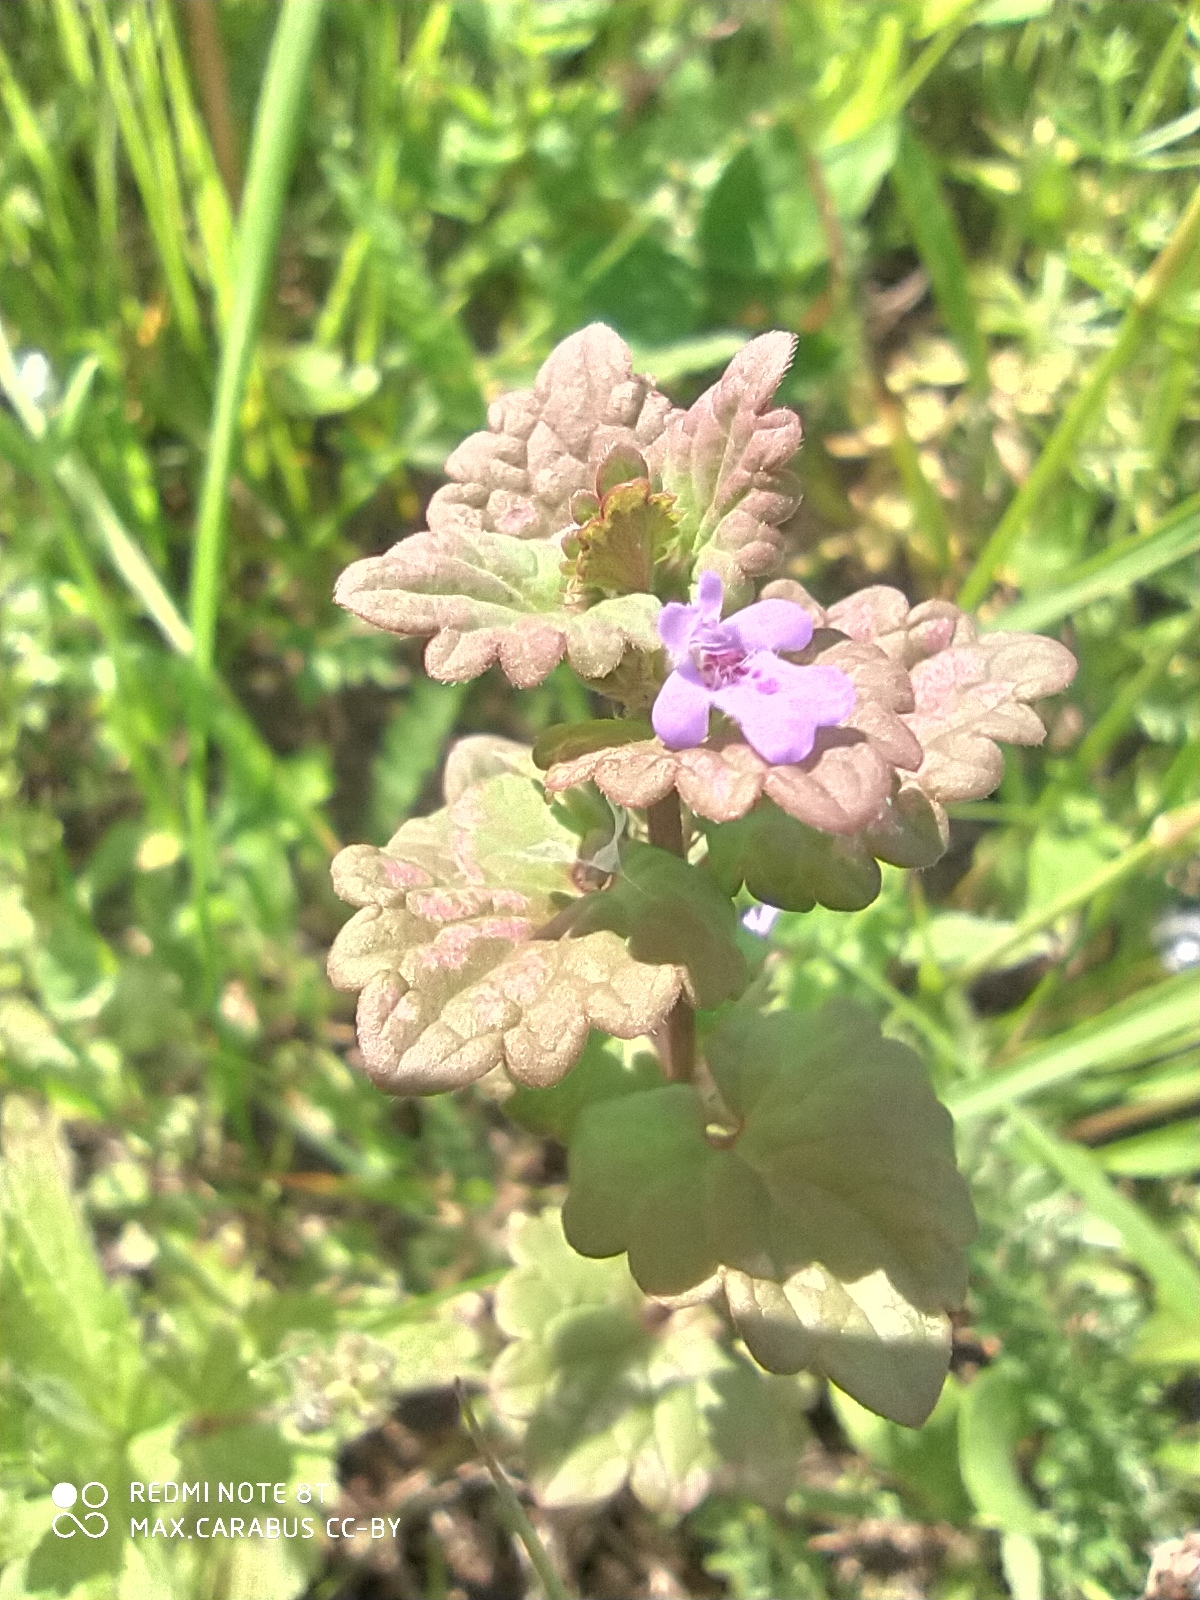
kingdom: Plantae
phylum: Tracheophyta
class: Magnoliopsida
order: Lamiales
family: Lamiaceae
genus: Glechoma
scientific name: Glechoma hederacea
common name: Ground ivy
